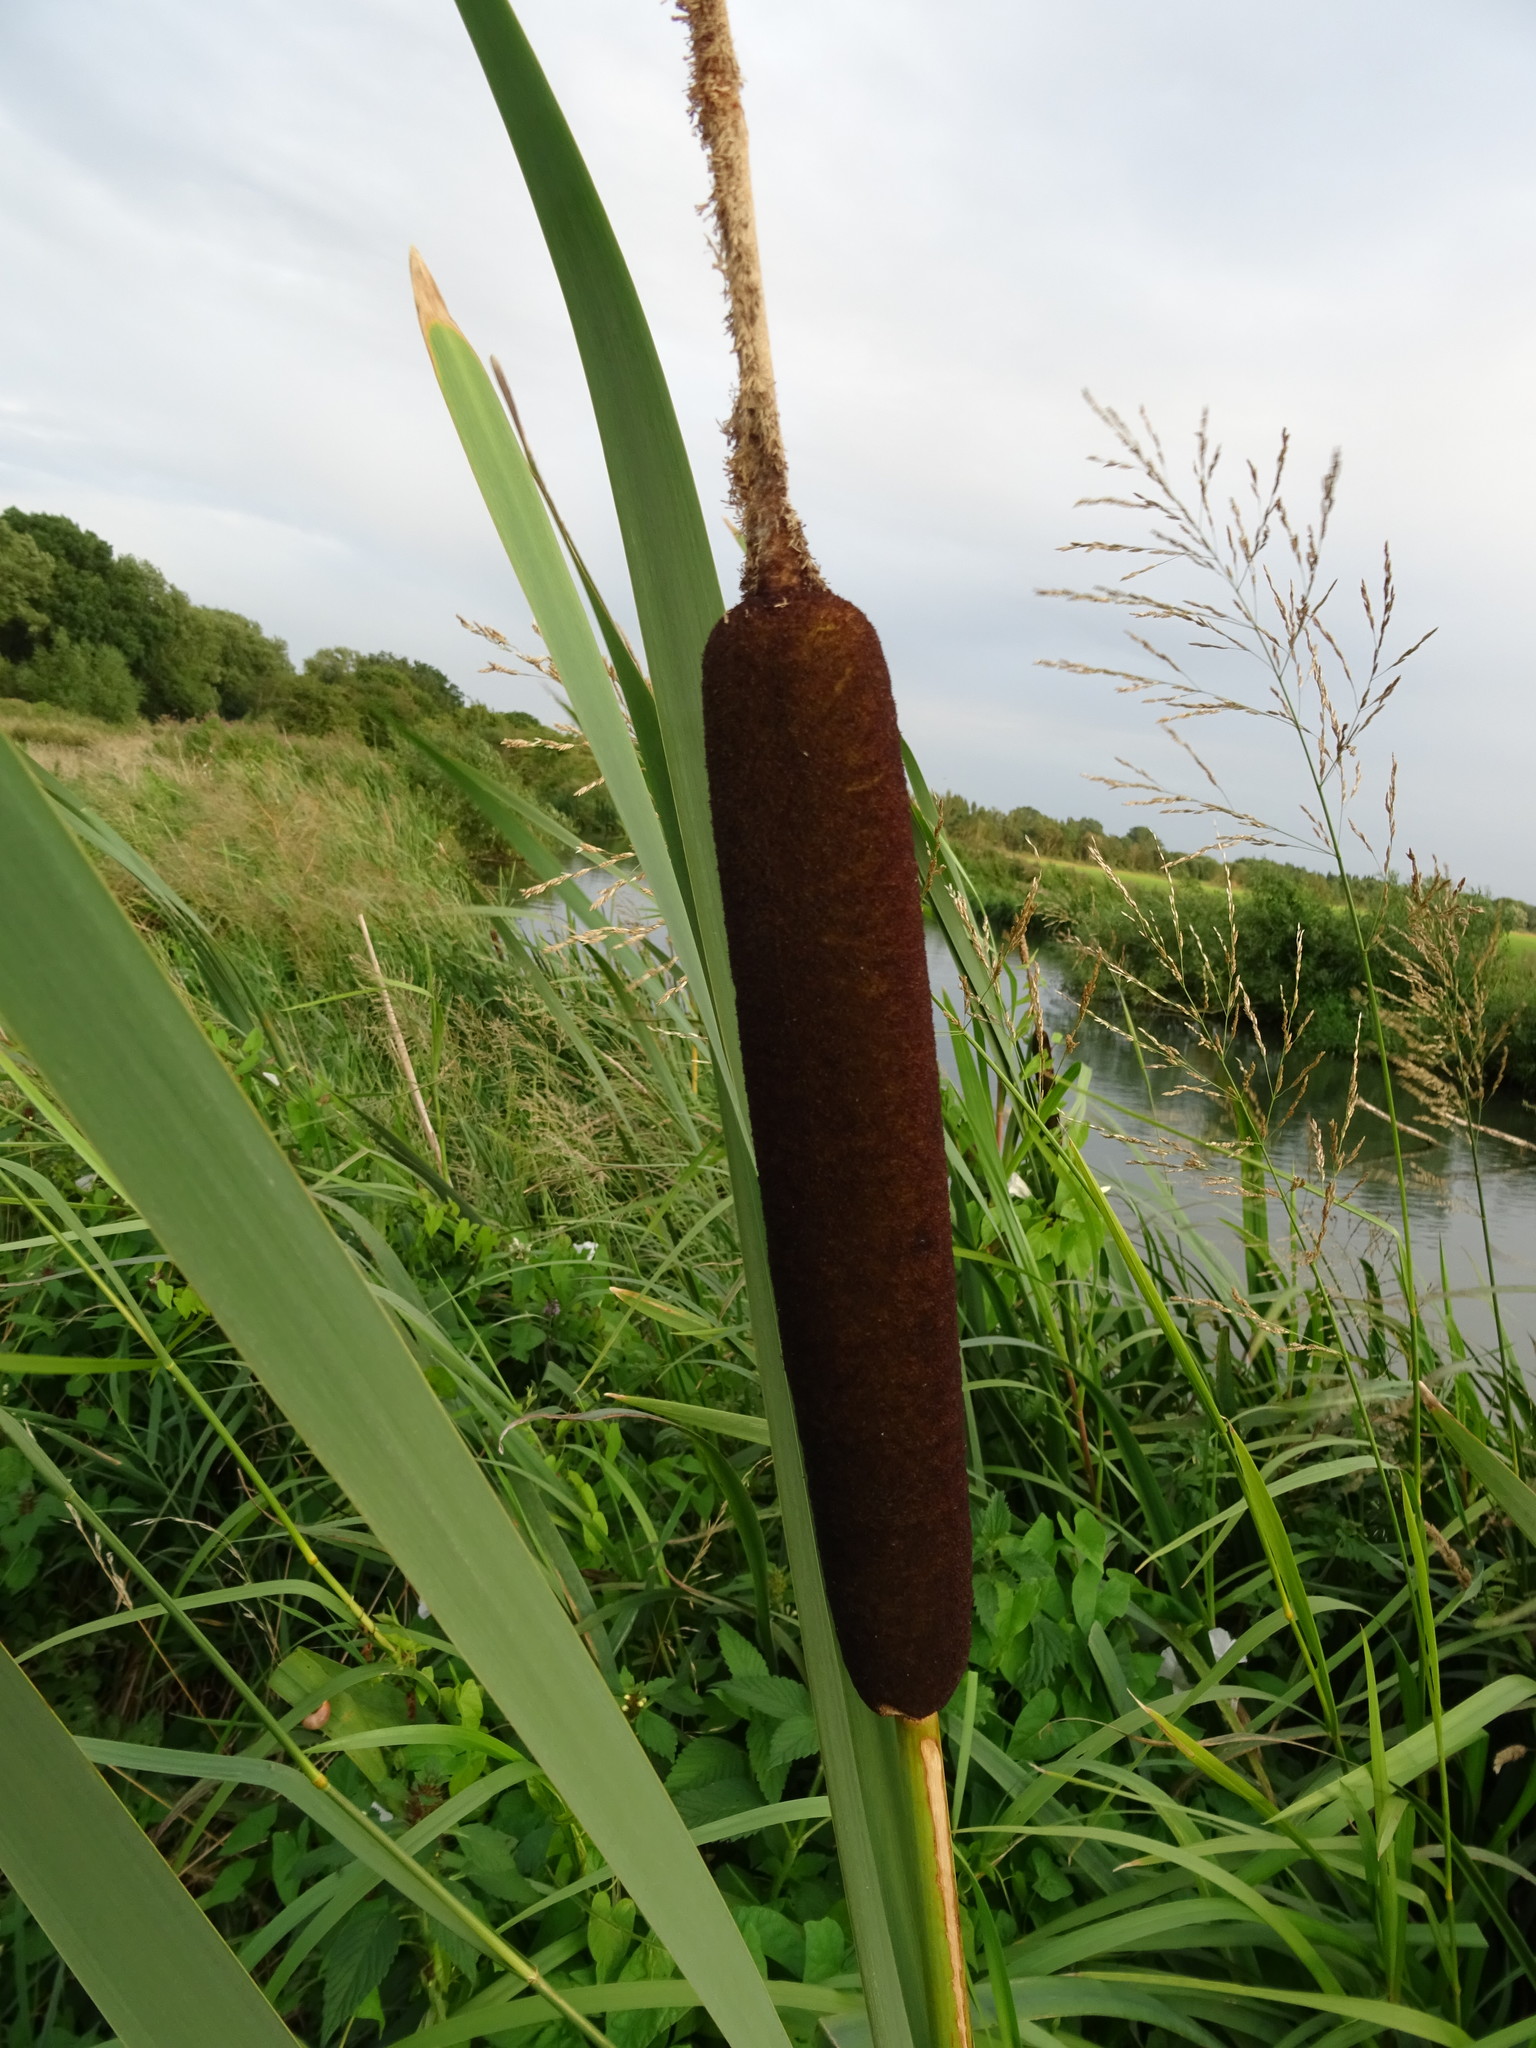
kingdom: Plantae
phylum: Tracheophyta
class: Liliopsida
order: Poales
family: Typhaceae
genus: Typha
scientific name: Typha latifolia
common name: Broadleaf cattail
